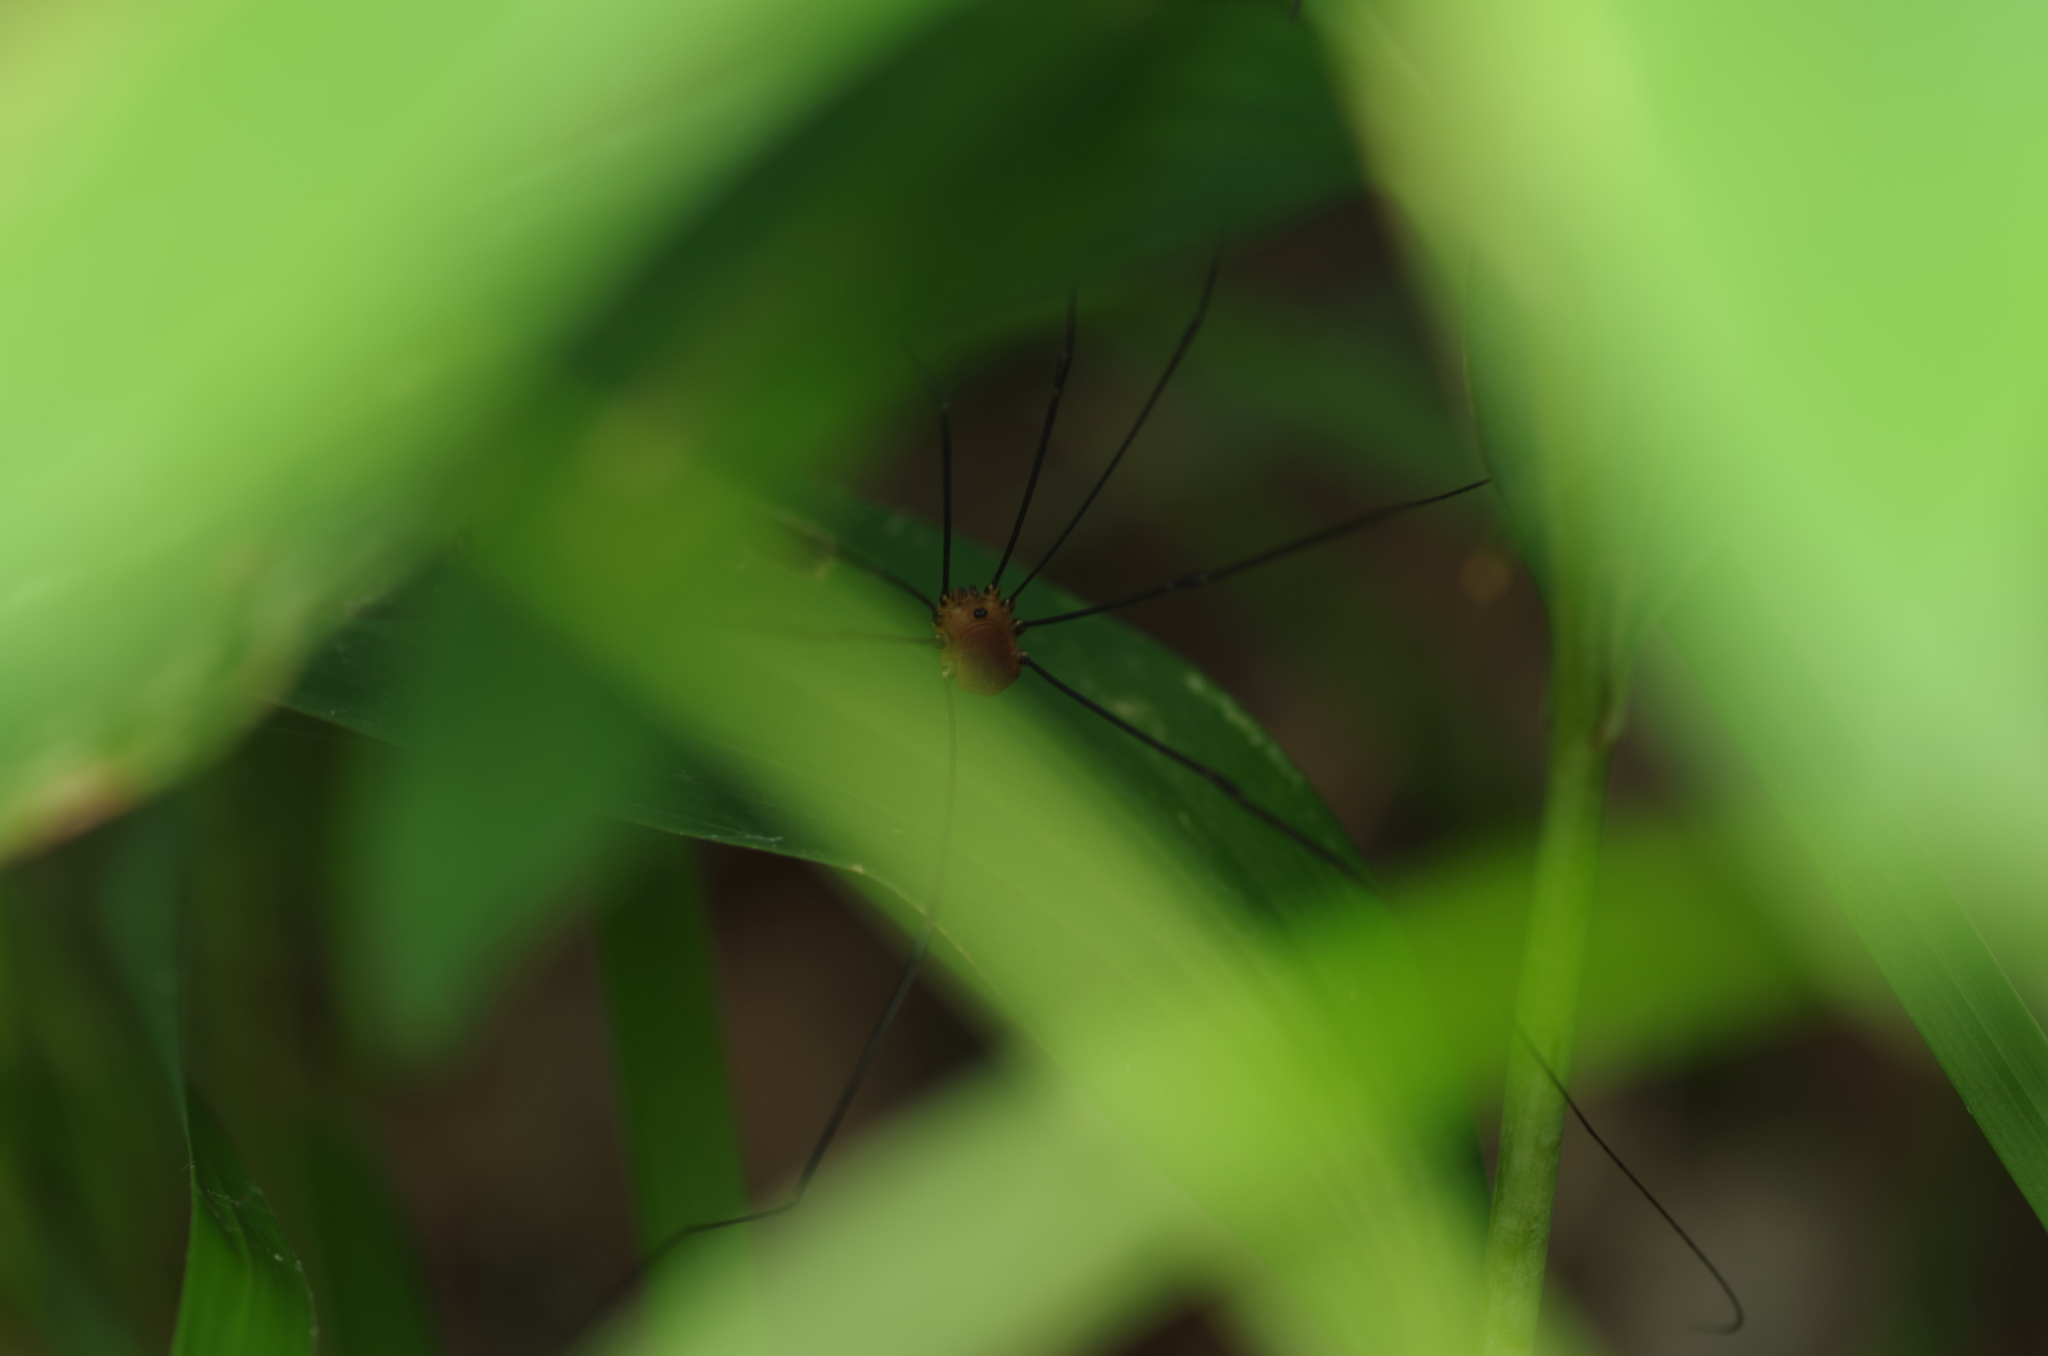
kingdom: Animalia
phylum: Arthropoda
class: Arachnida
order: Opiliones
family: Sclerosomatidae
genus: Leiobunum
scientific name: Leiobunum rotundum
